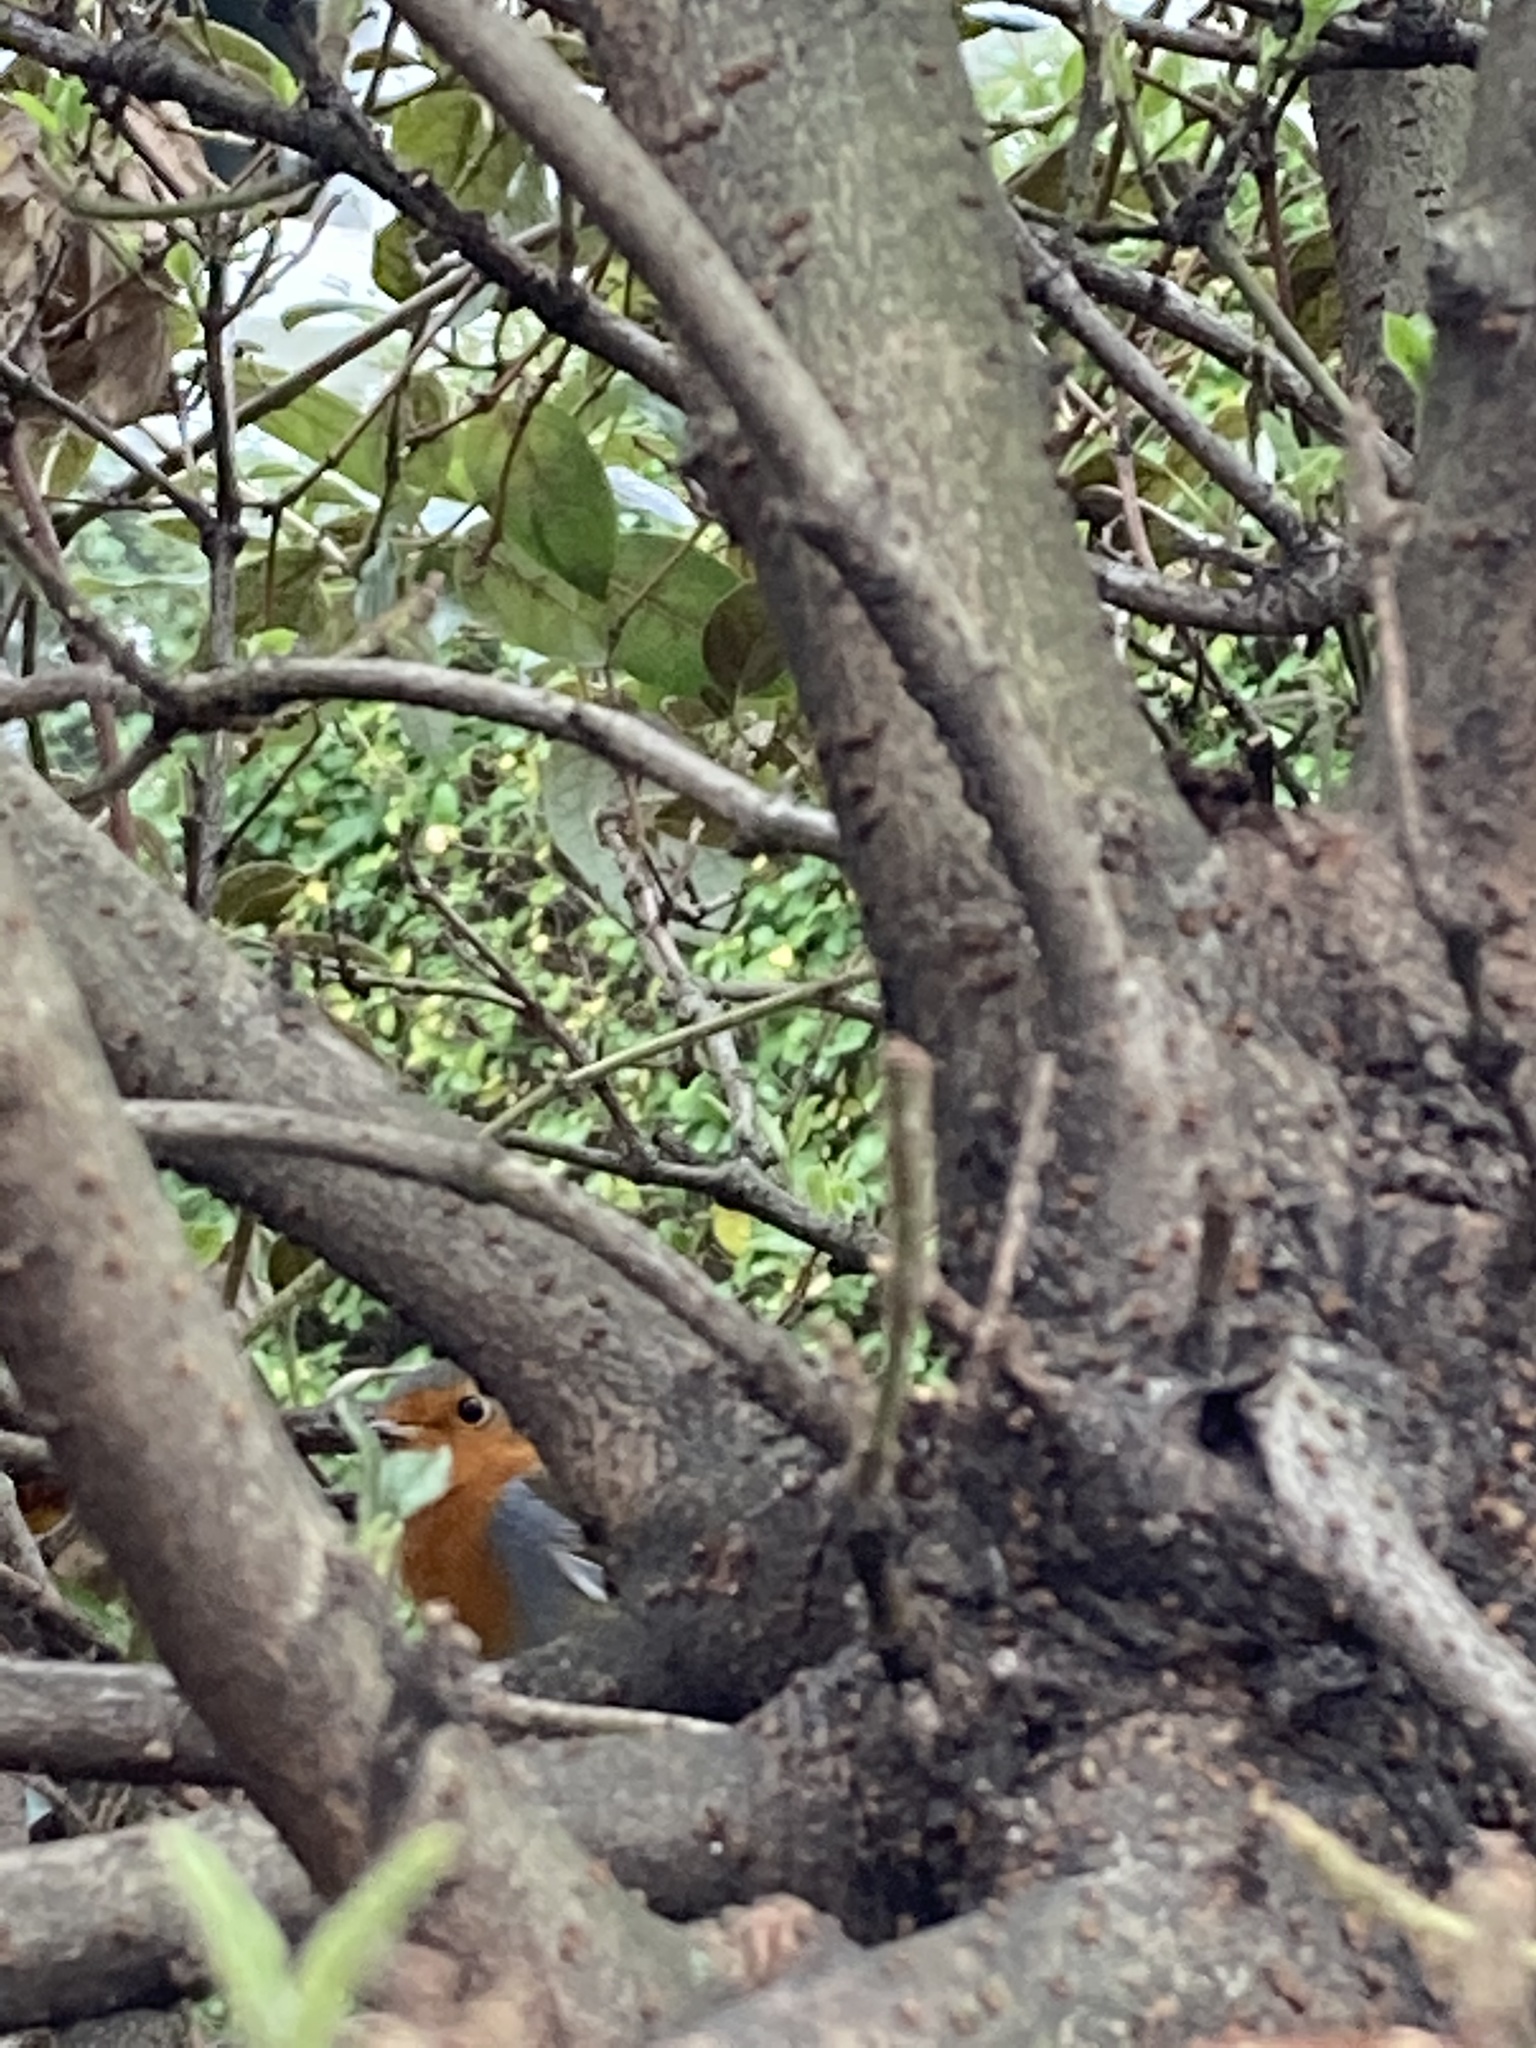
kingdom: Animalia
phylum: Chordata
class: Aves
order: Passeriformes
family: Muscicapidae
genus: Erithacus
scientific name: Erithacus rubecula
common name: European robin
